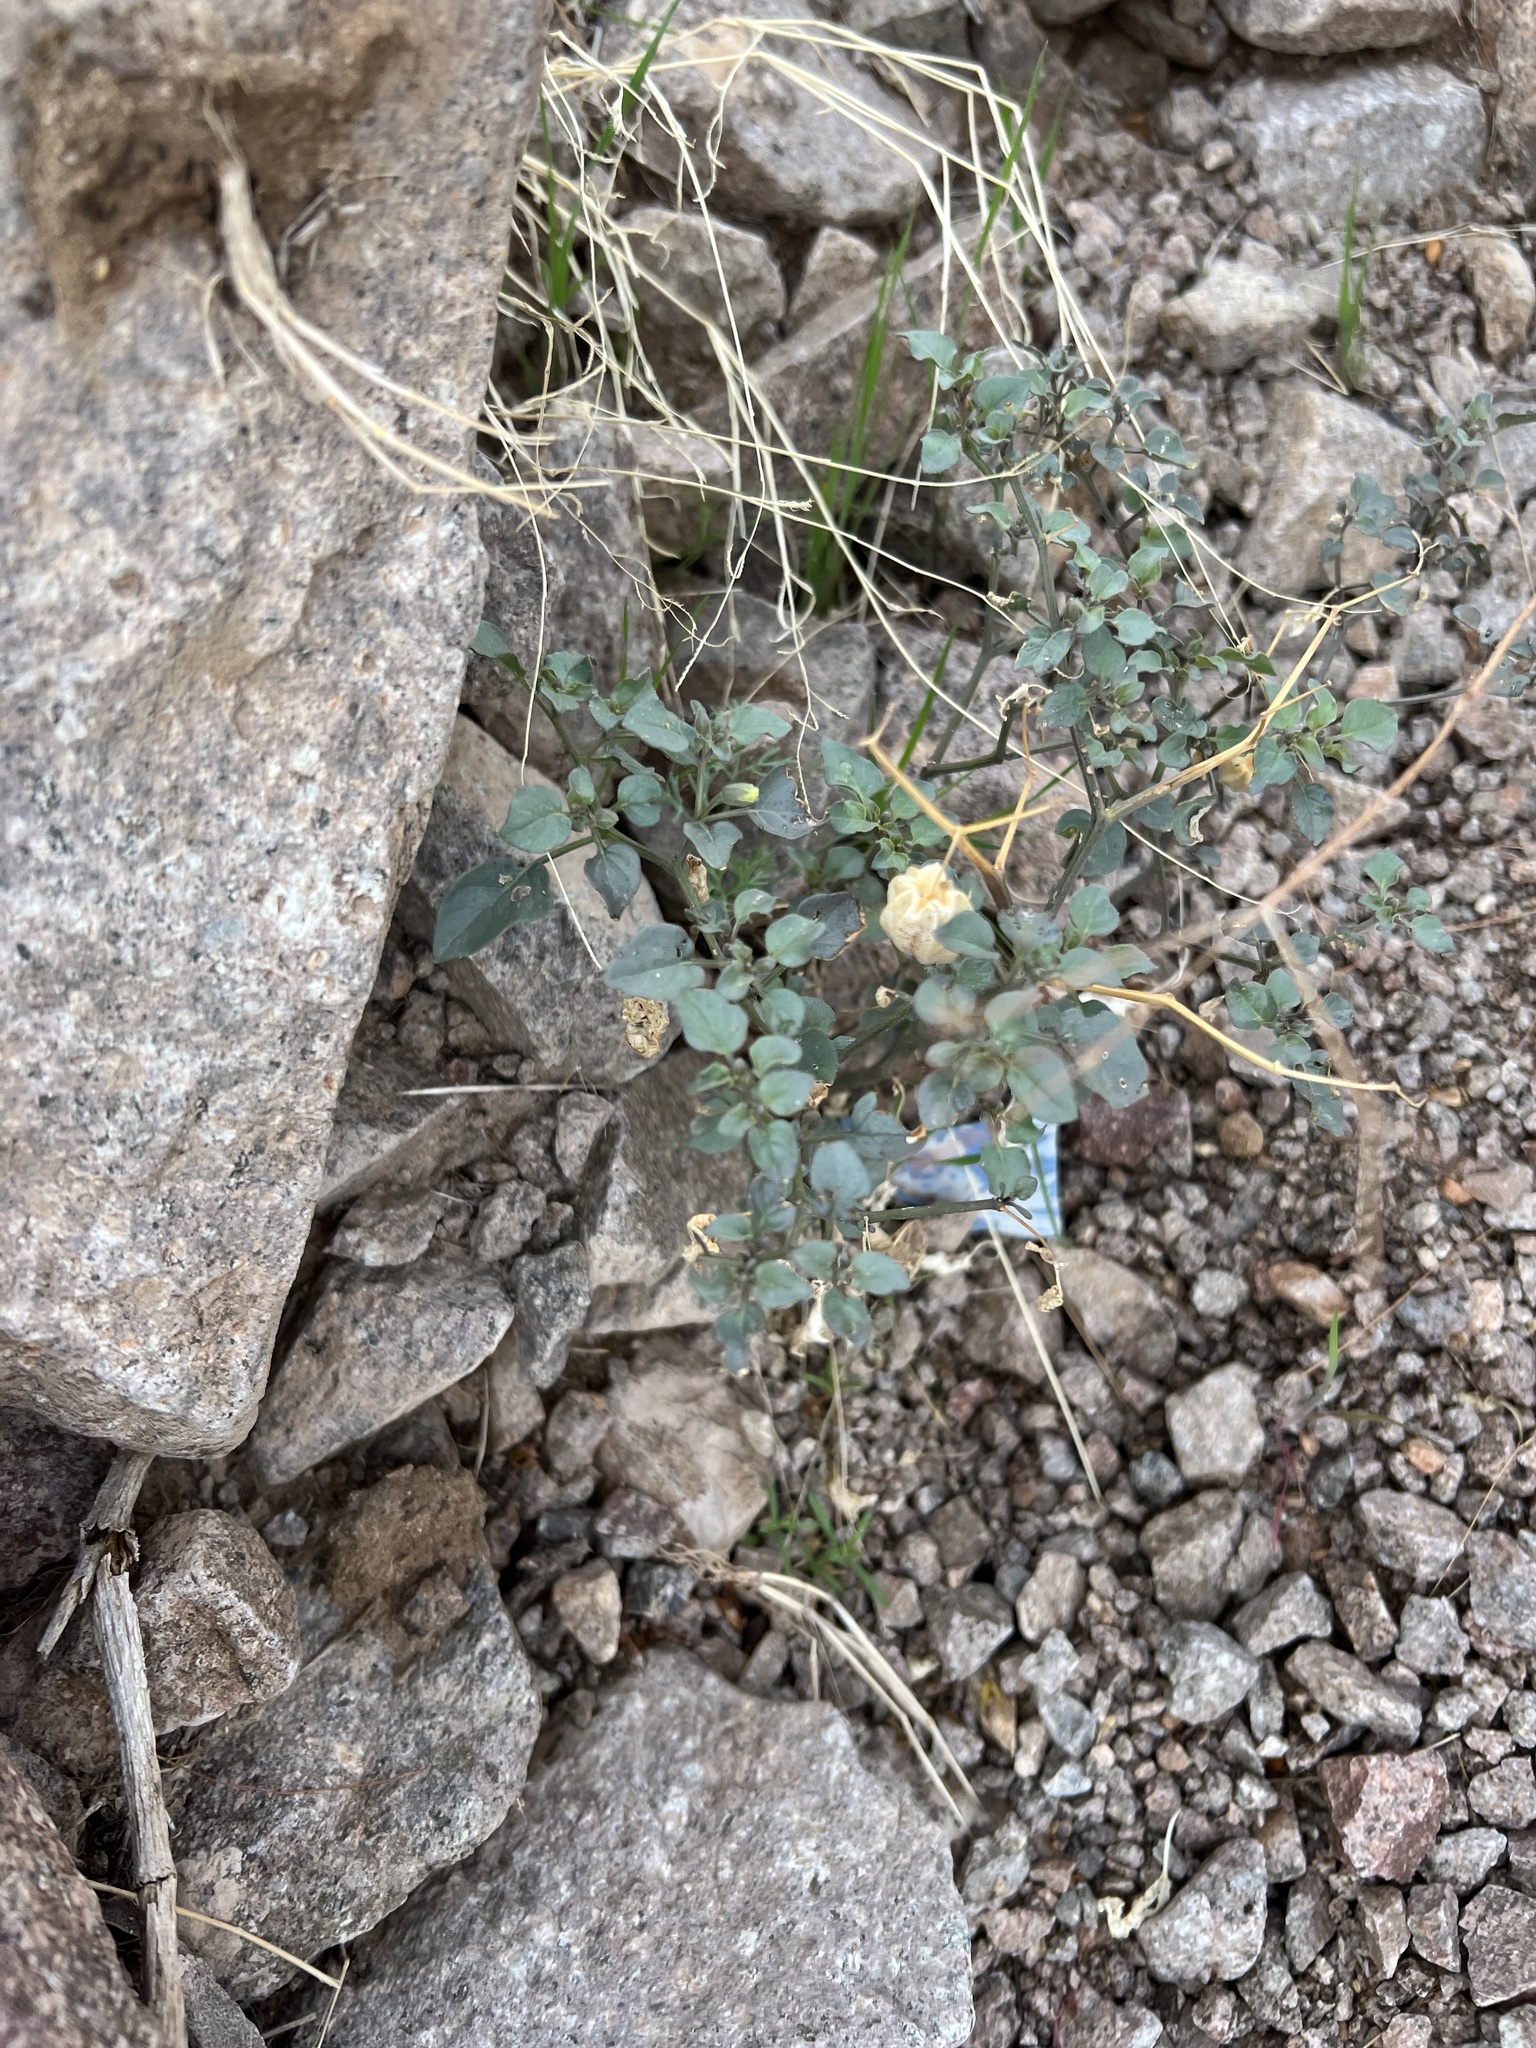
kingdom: Plantae
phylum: Tracheophyta
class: Magnoliopsida
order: Solanales
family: Solanaceae
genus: Physalis
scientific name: Physalis crassifolia
